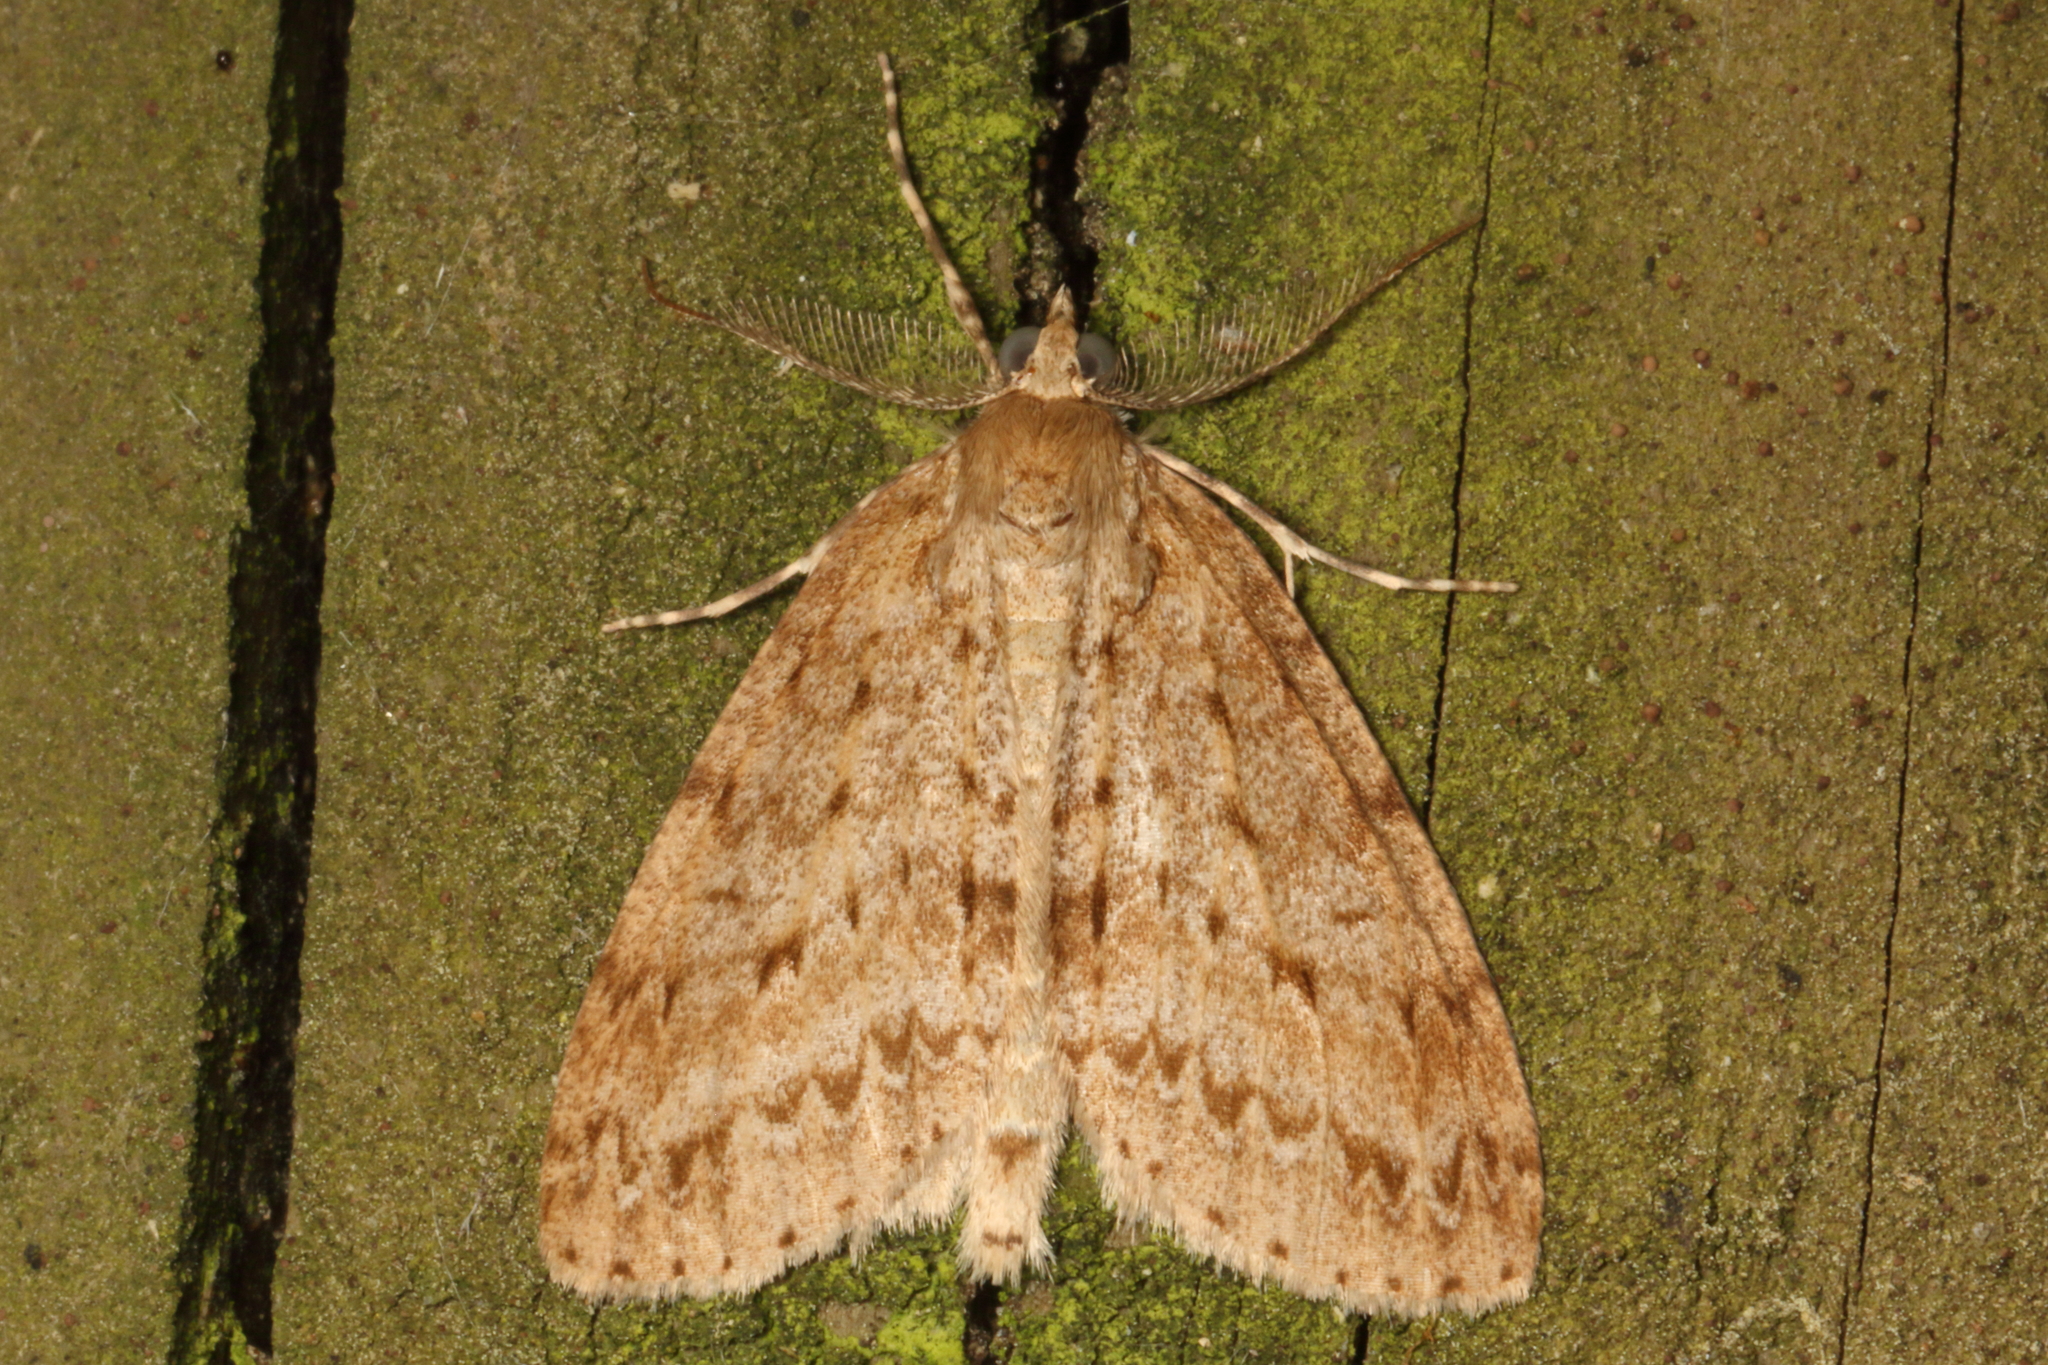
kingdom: Animalia
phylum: Arthropoda
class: Insecta
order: Lepidoptera
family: Geometridae
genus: Pseudocoremia
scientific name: Pseudocoremia fenerata
